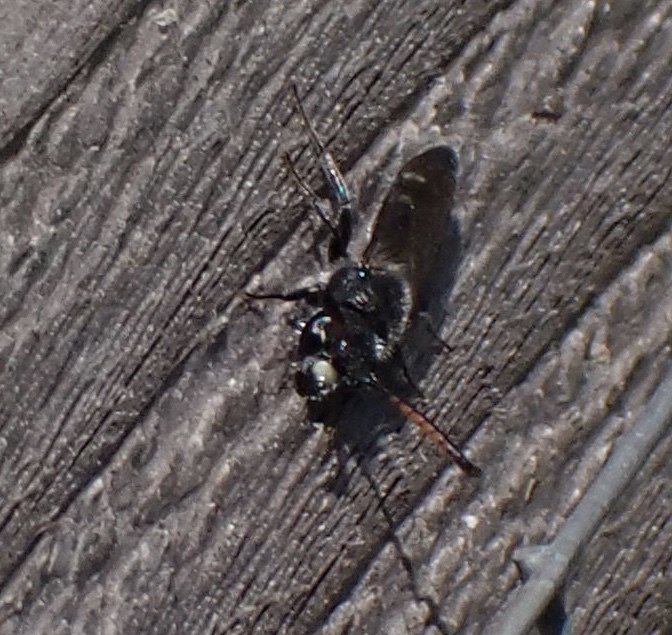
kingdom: Animalia
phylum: Arthropoda
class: Insecta
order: Hymenoptera
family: Sapygidae
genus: Sapyga
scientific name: Sapyga quinquepunctata
